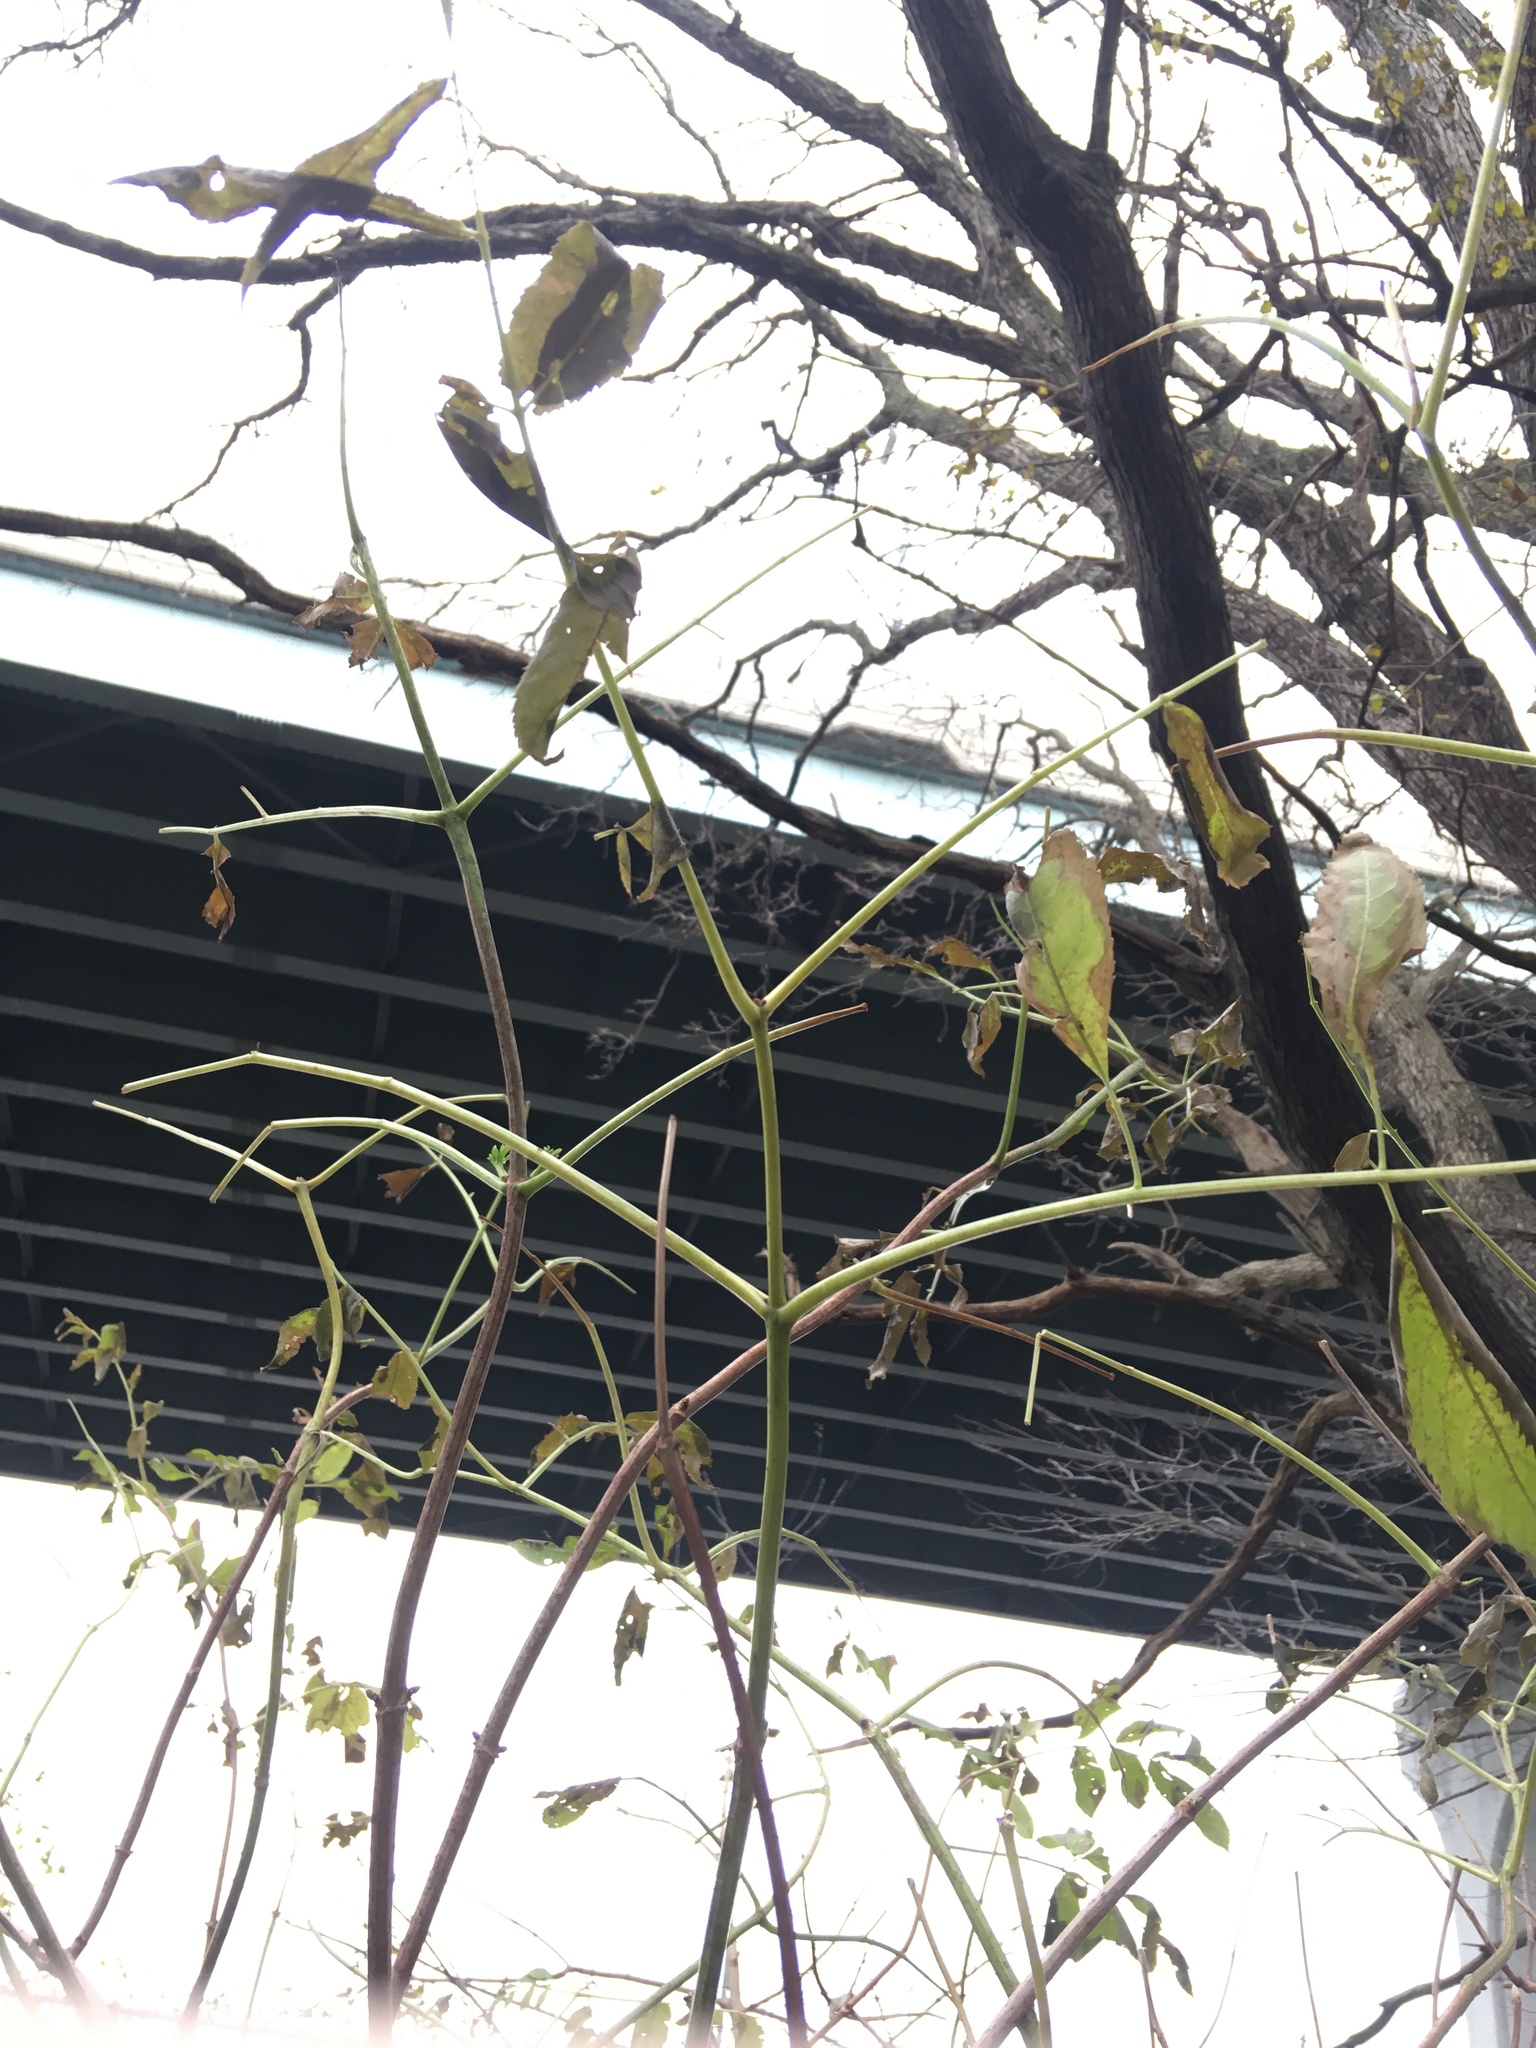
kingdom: Plantae
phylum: Tracheophyta
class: Magnoliopsida
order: Dipsacales
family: Viburnaceae
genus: Sambucus
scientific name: Sambucus canadensis
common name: American elder
